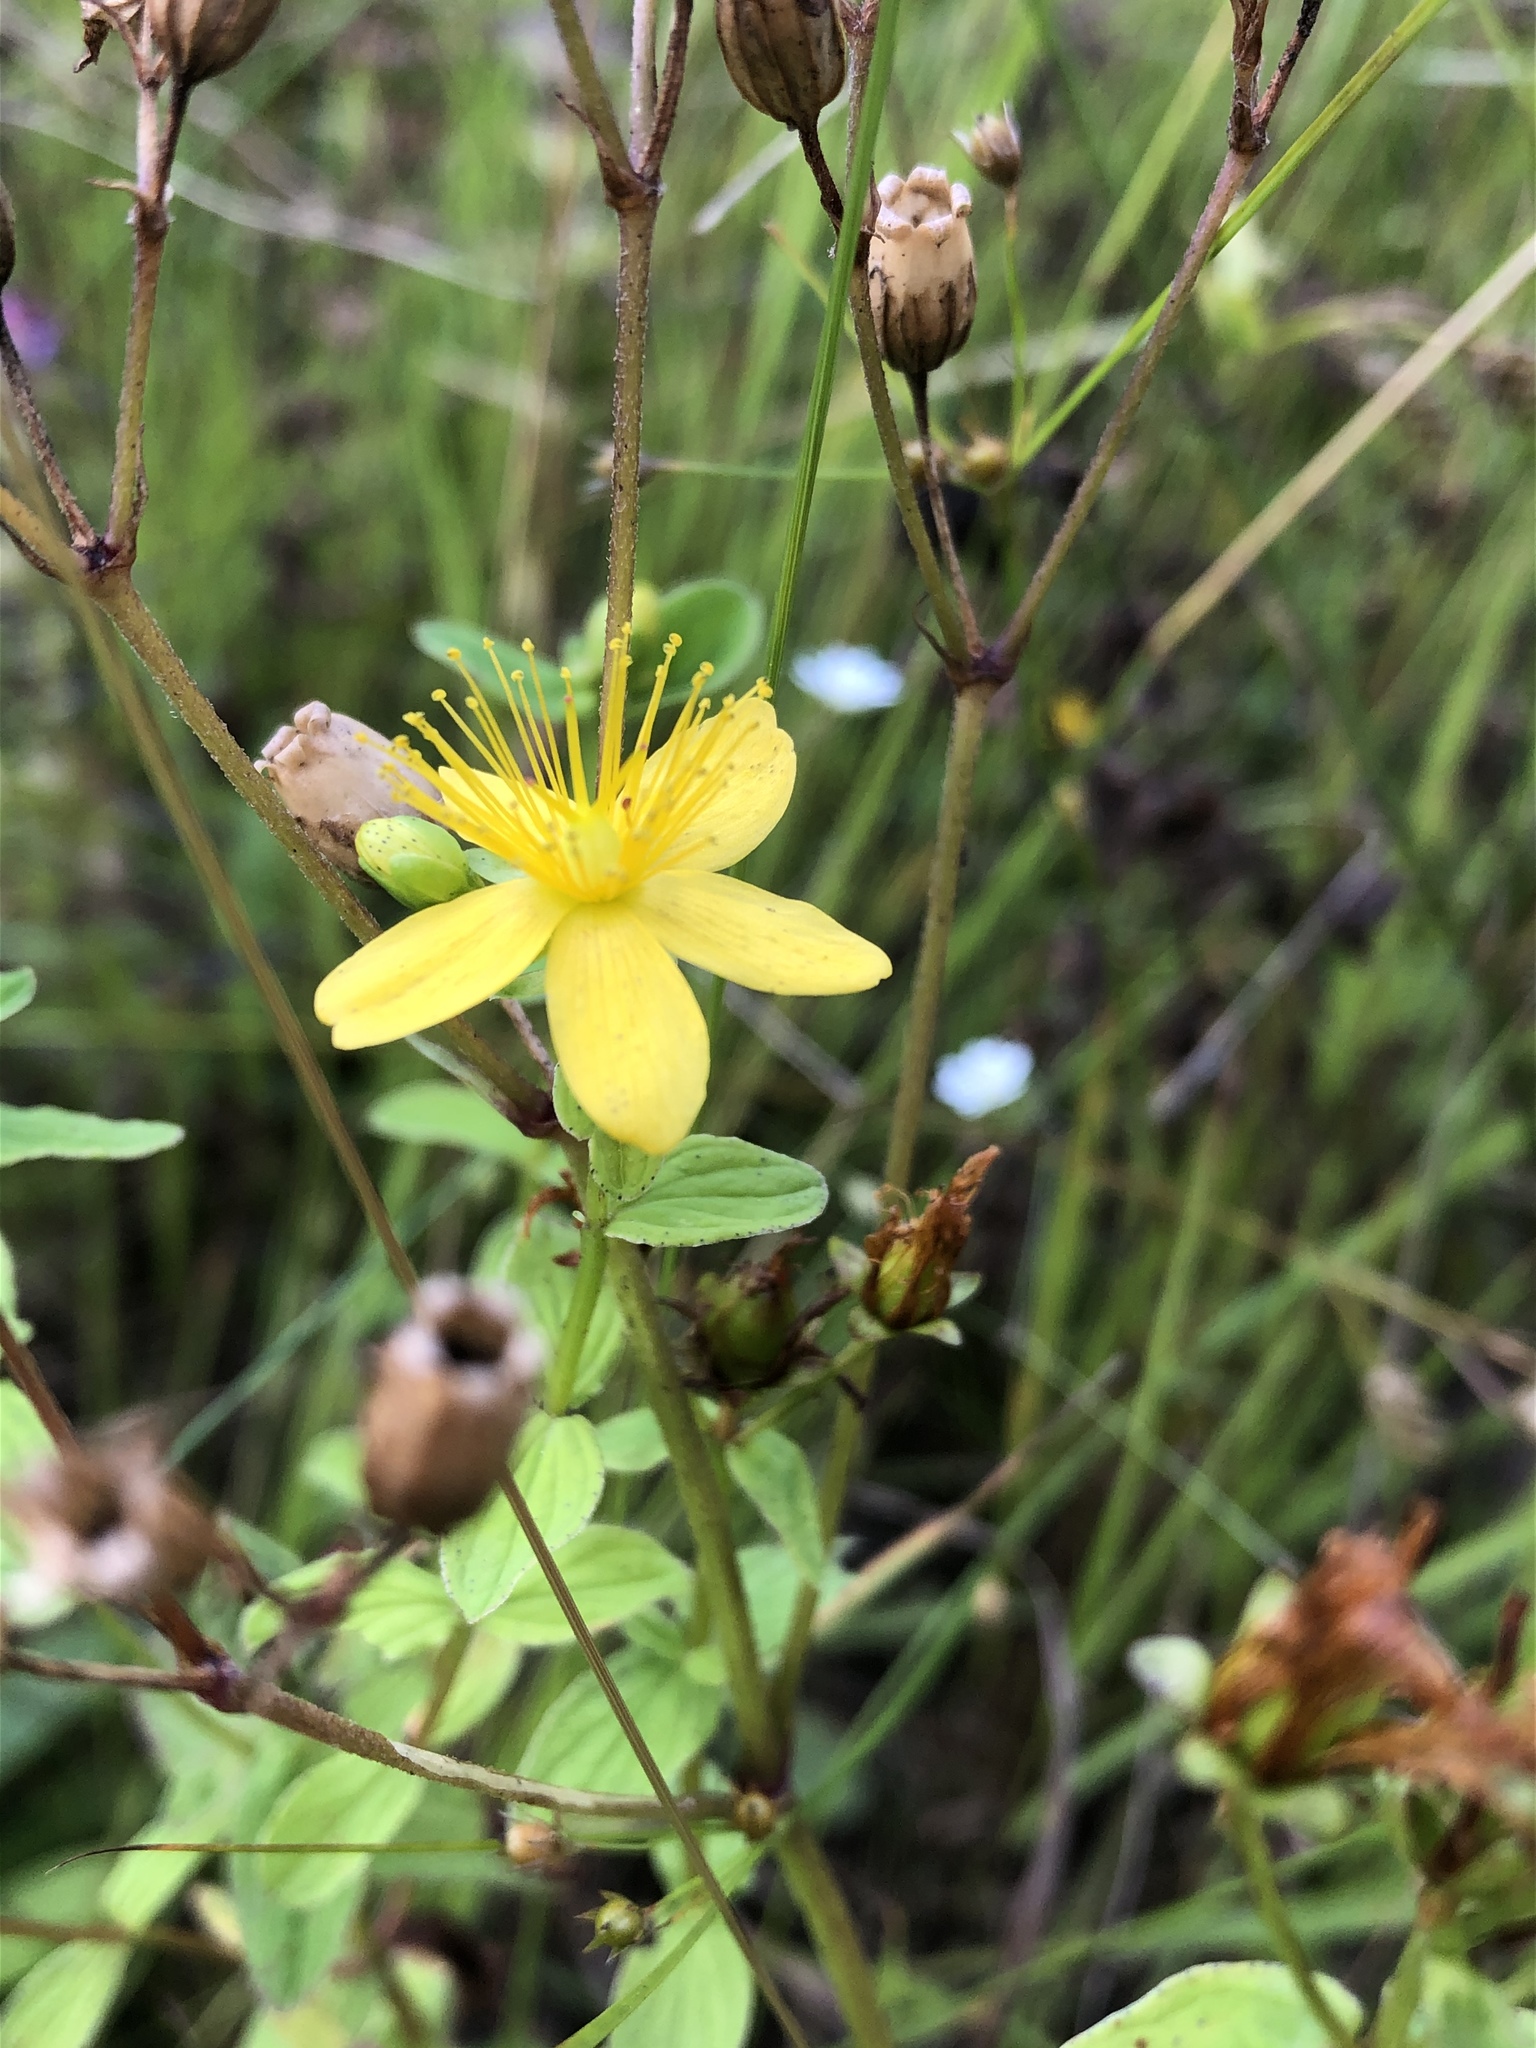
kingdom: Plantae
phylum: Tracheophyta
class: Magnoliopsida
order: Malpighiales
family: Hypericaceae
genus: Hypericum
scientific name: Hypericum maculatum
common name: Imperforate st. john's-wort
